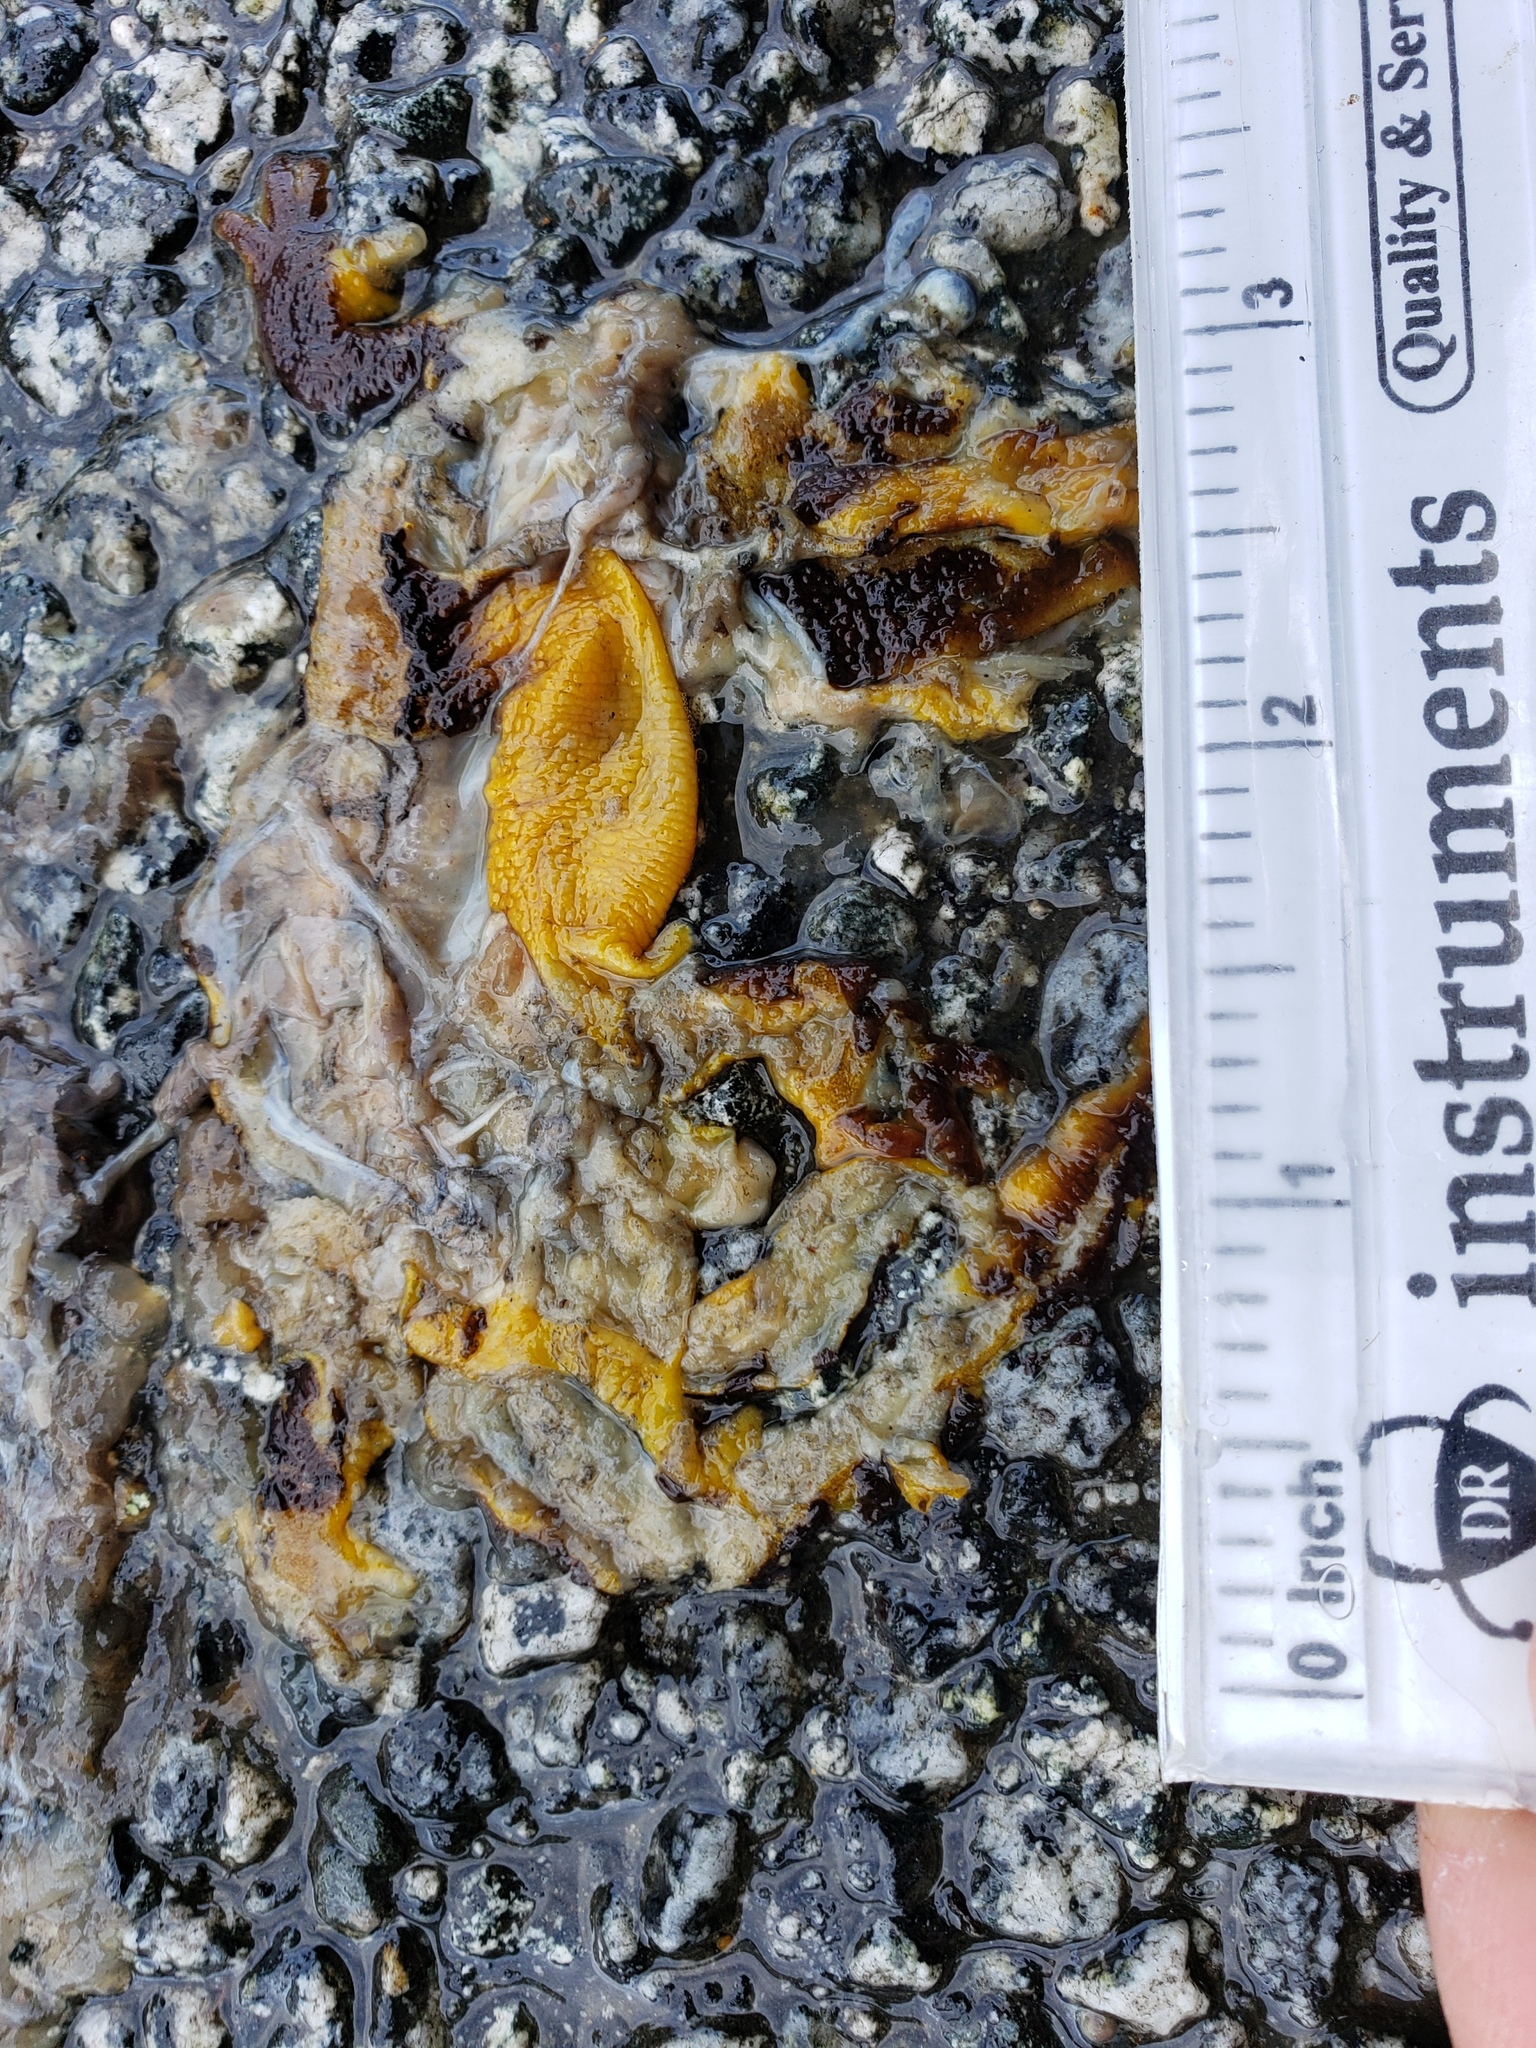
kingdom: Animalia
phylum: Chordata
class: Amphibia
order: Caudata
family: Salamandridae
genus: Taricha
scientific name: Taricha
